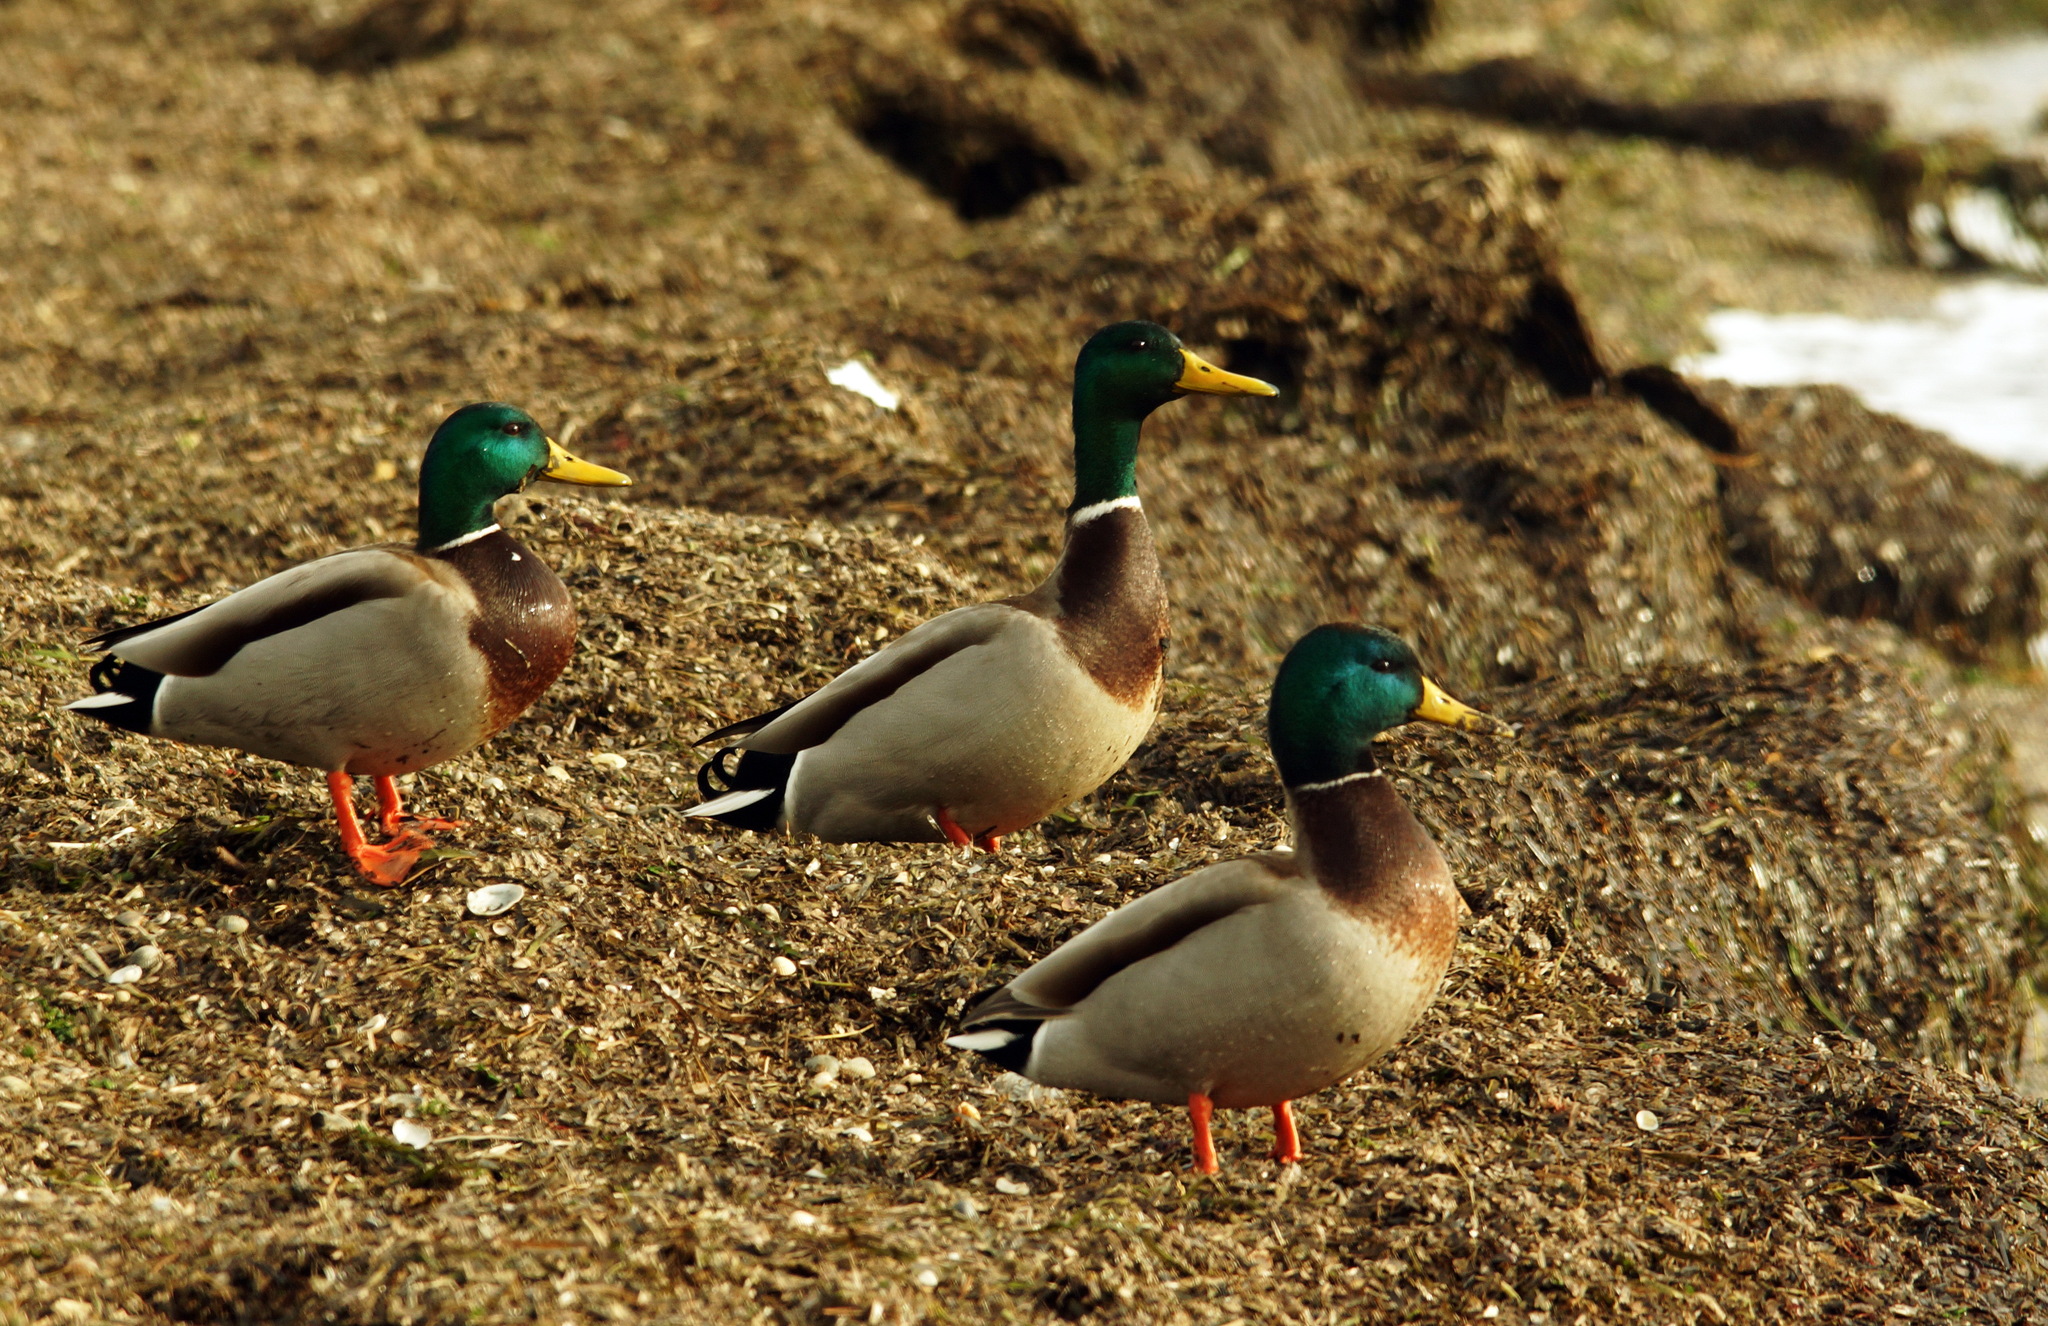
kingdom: Animalia
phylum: Chordata
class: Aves
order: Anseriformes
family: Anatidae
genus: Anas
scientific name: Anas platyrhynchos
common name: Mallard
